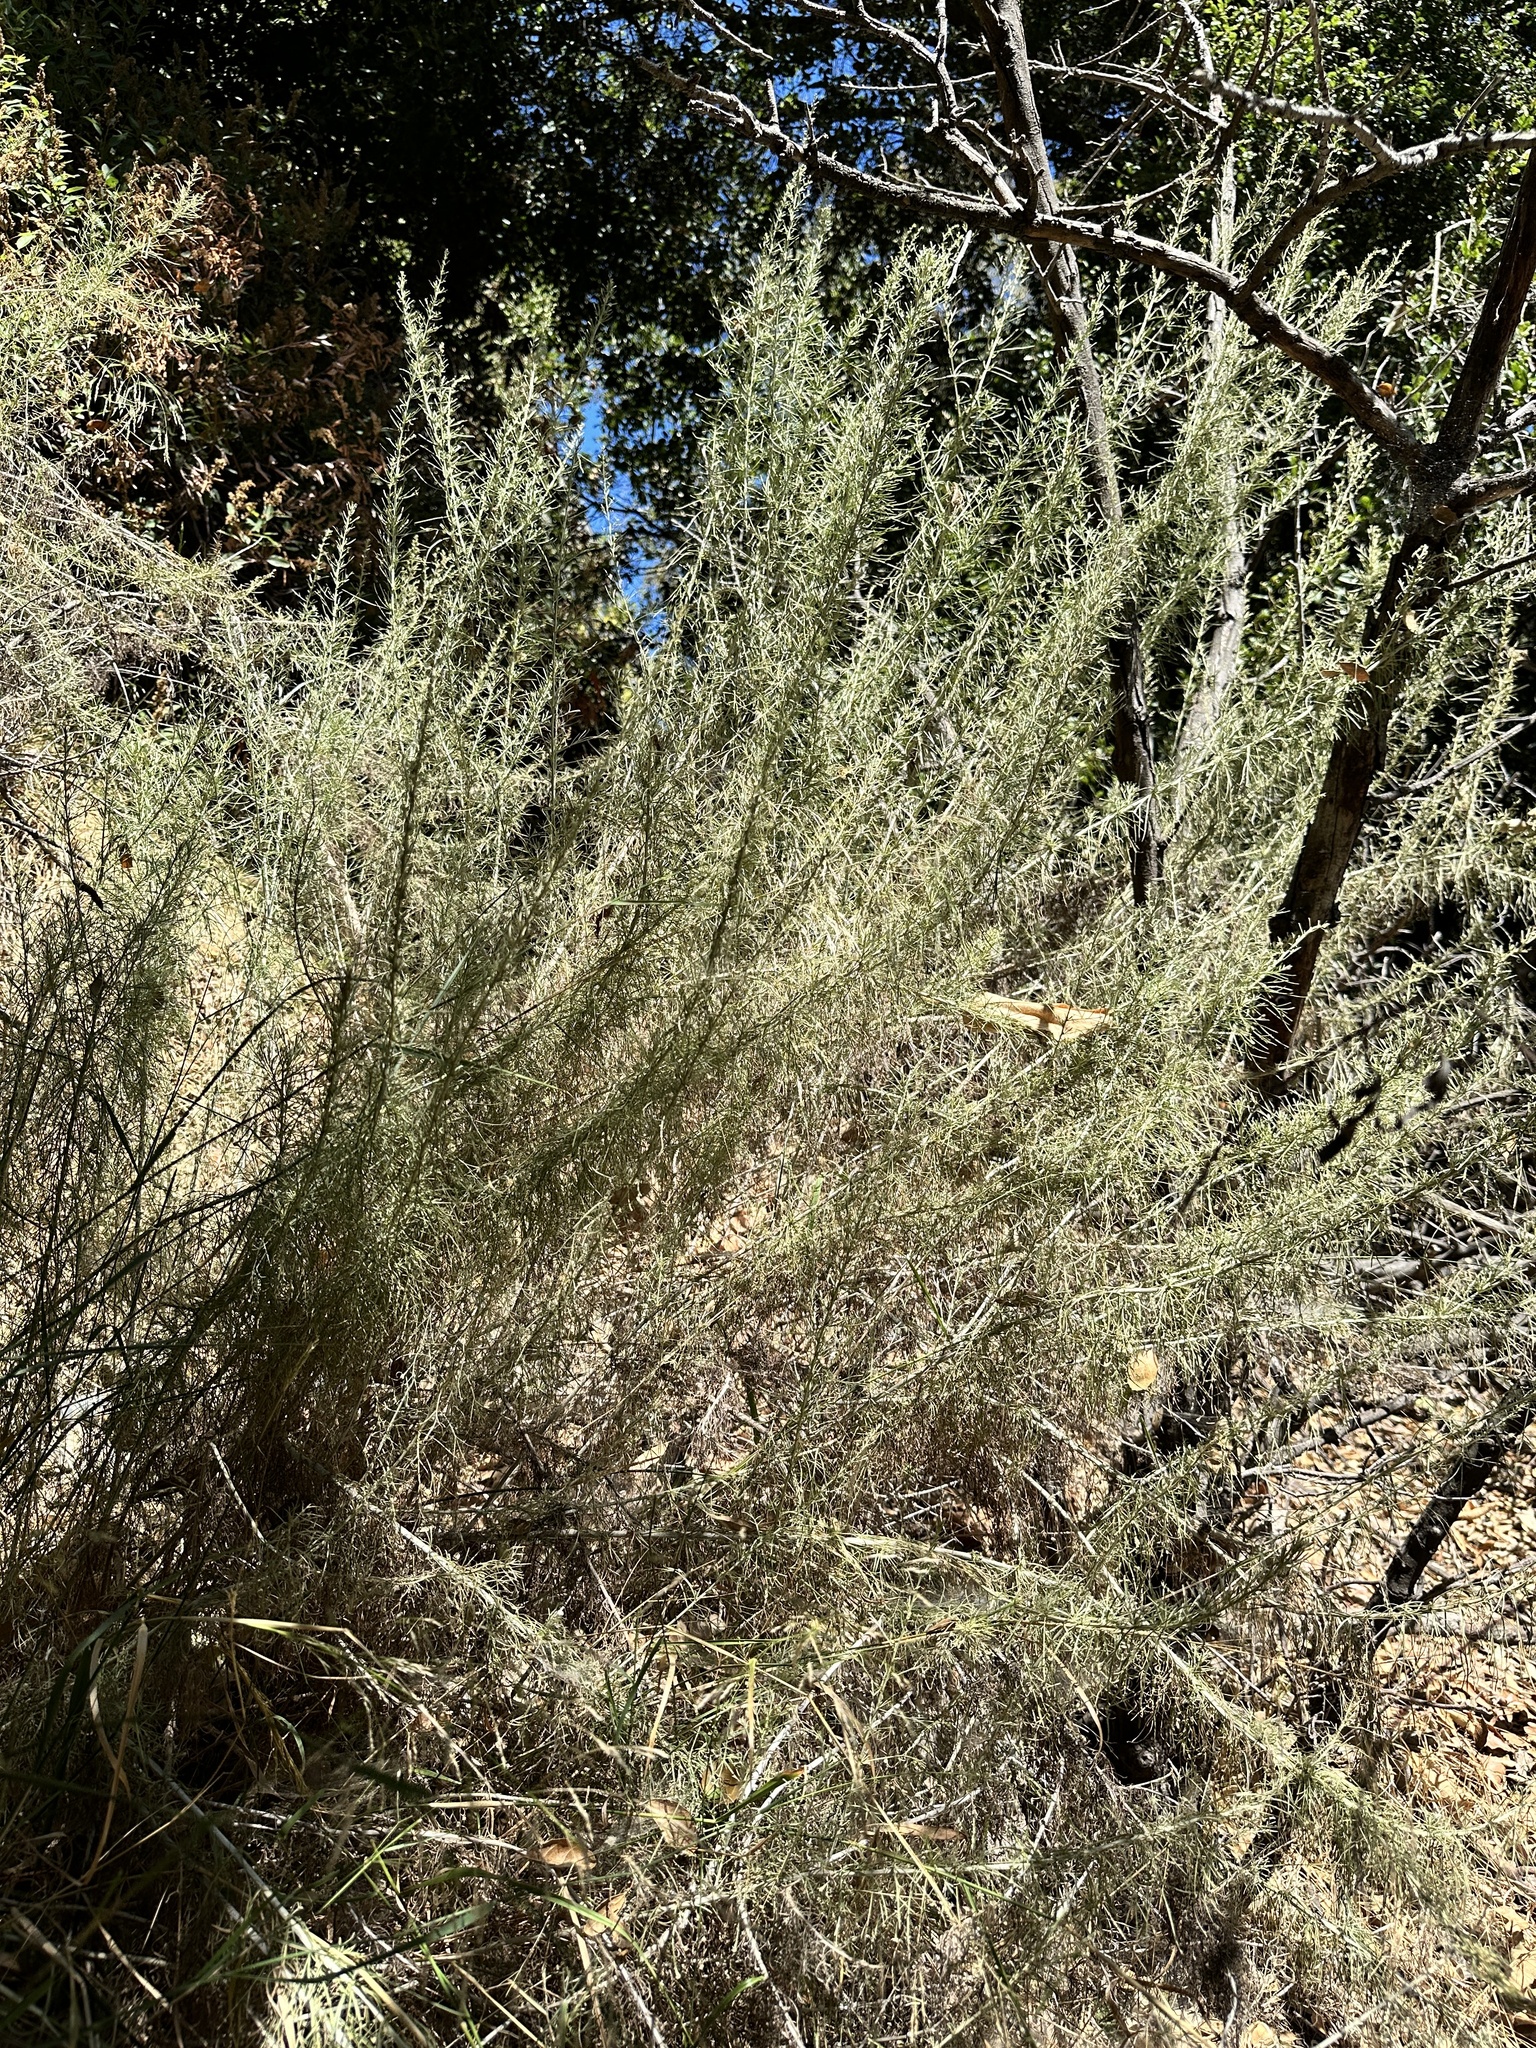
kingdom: Plantae
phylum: Tracheophyta
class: Magnoliopsida
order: Asterales
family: Asteraceae
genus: Artemisia
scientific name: Artemisia californica
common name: California sagebrush
